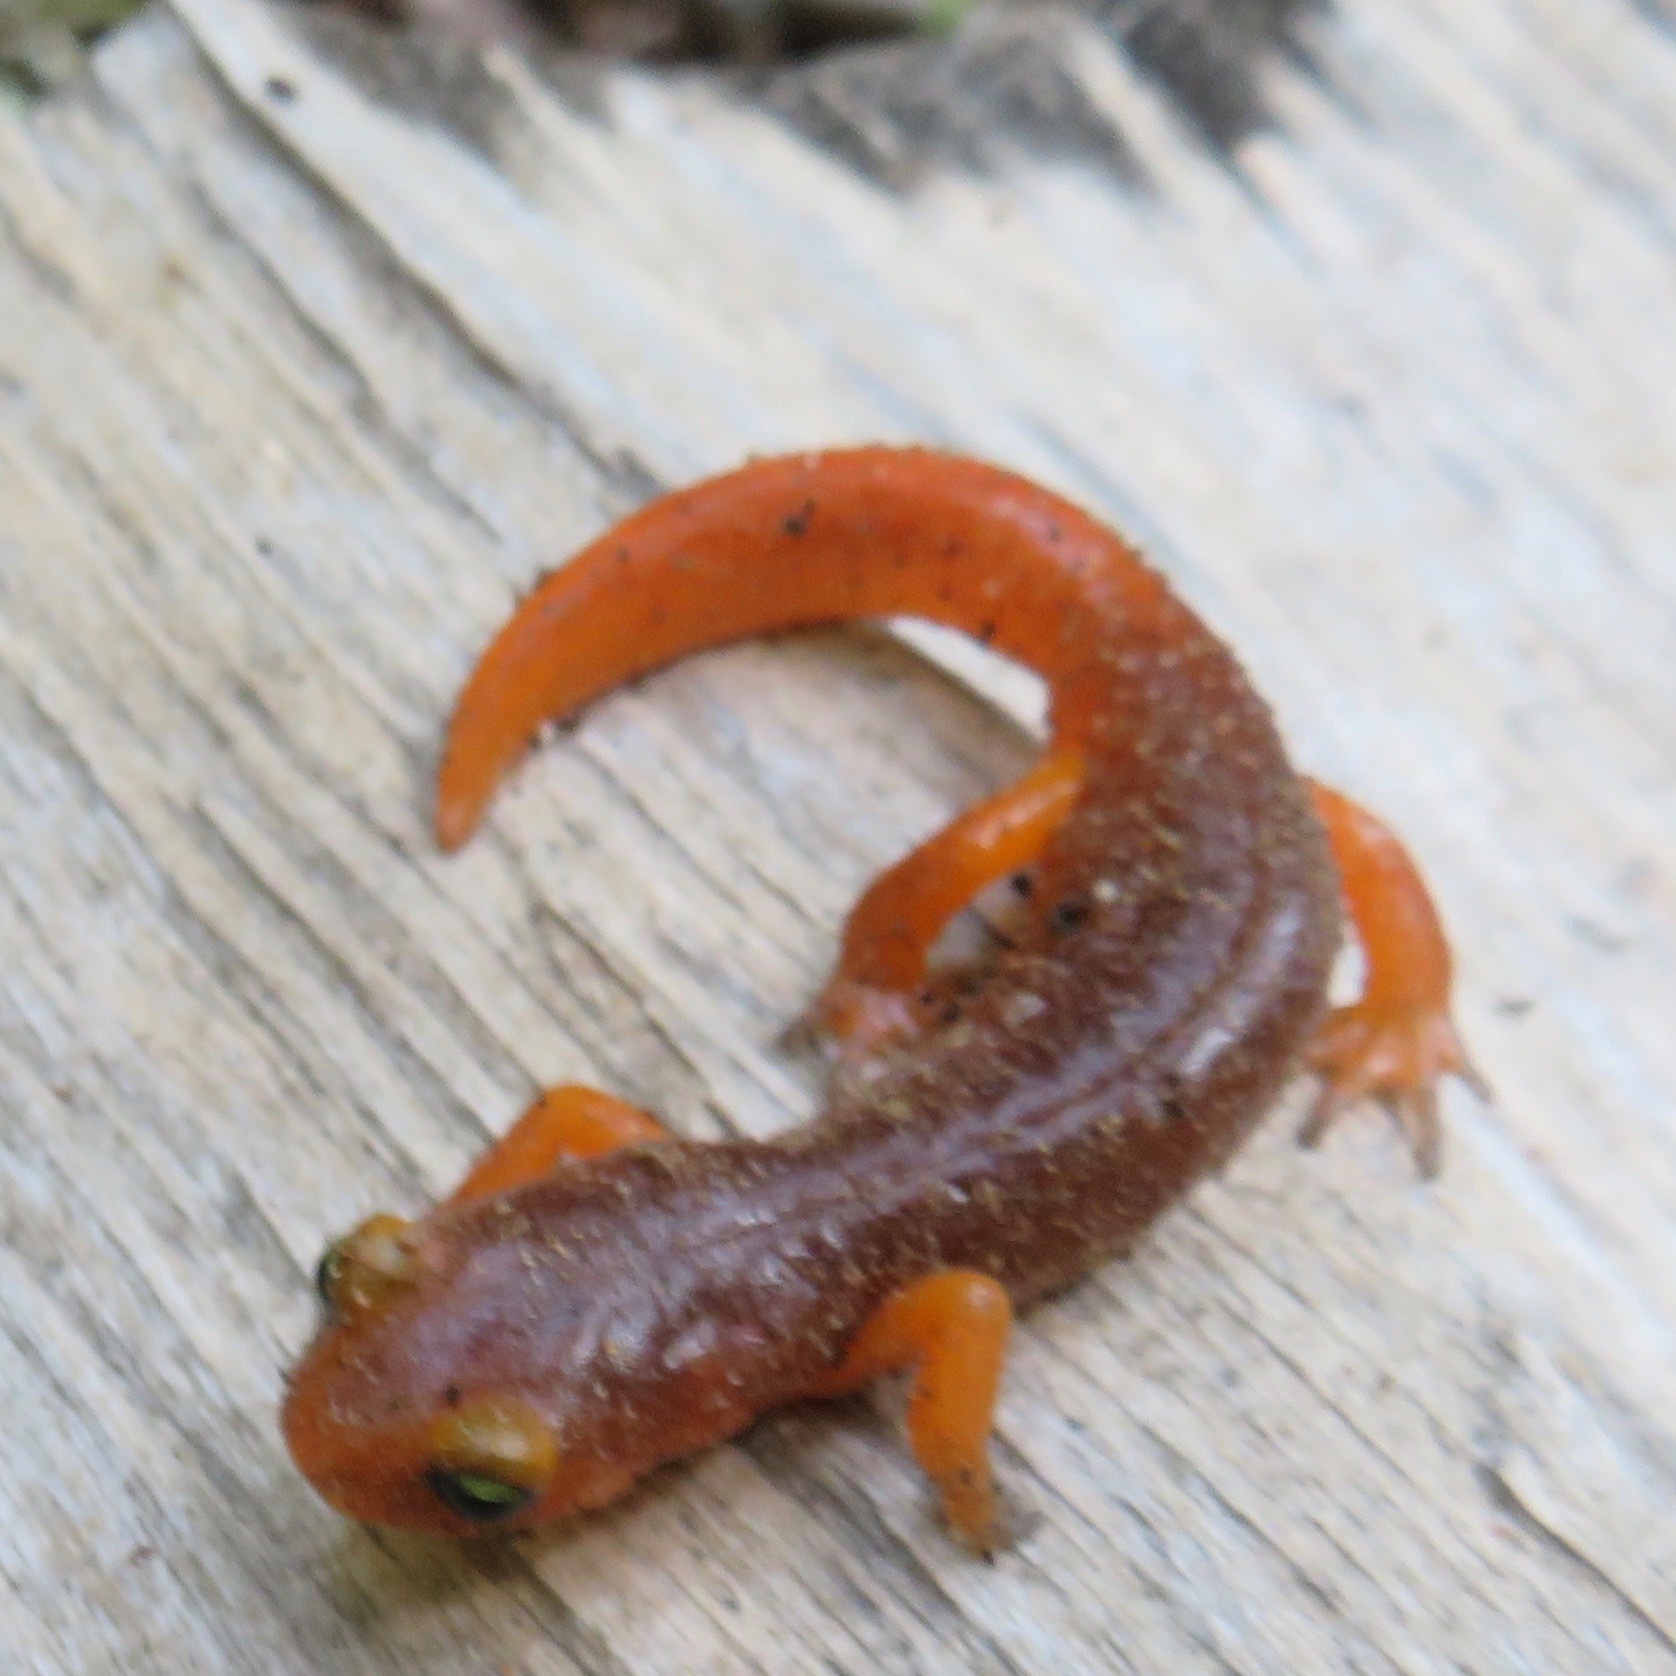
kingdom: Animalia
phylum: Chordata
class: Amphibia
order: Caudata
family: Plethodontidae
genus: Ensatina
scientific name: Ensatina eschscholtzii
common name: Ensatina
